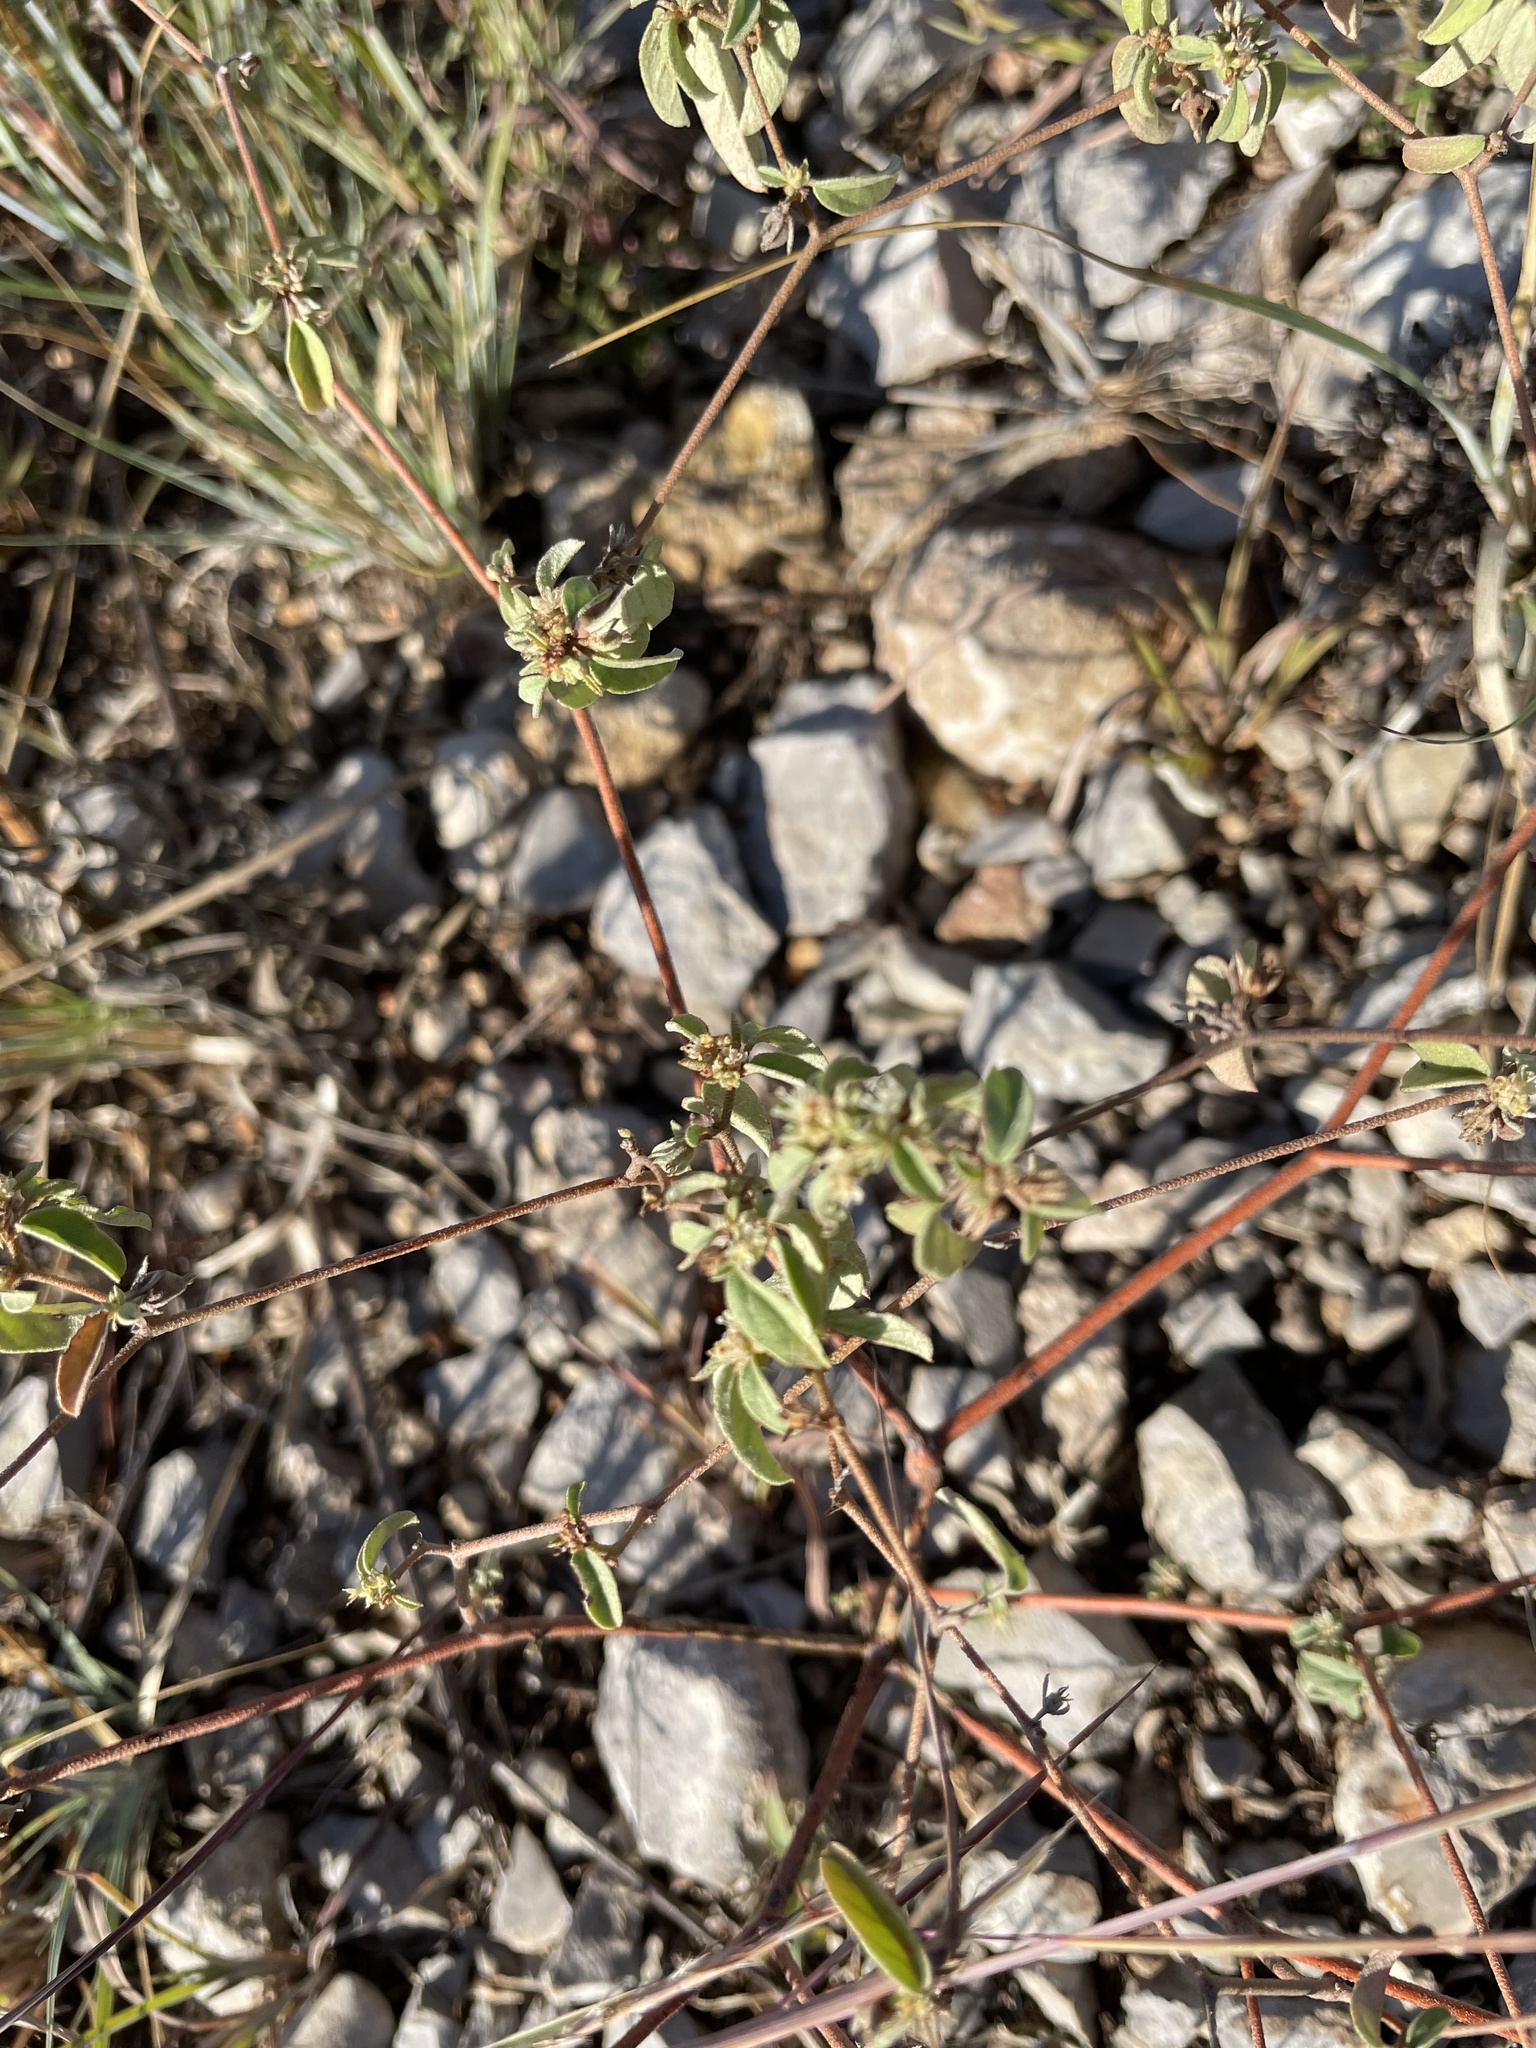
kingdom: Plantae
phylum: Tracheophyta
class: Magnoliopsida
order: Malpighiales
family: Euphorbiaceae
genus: Croton
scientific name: Croton monanthogynus
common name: One-seed croton
